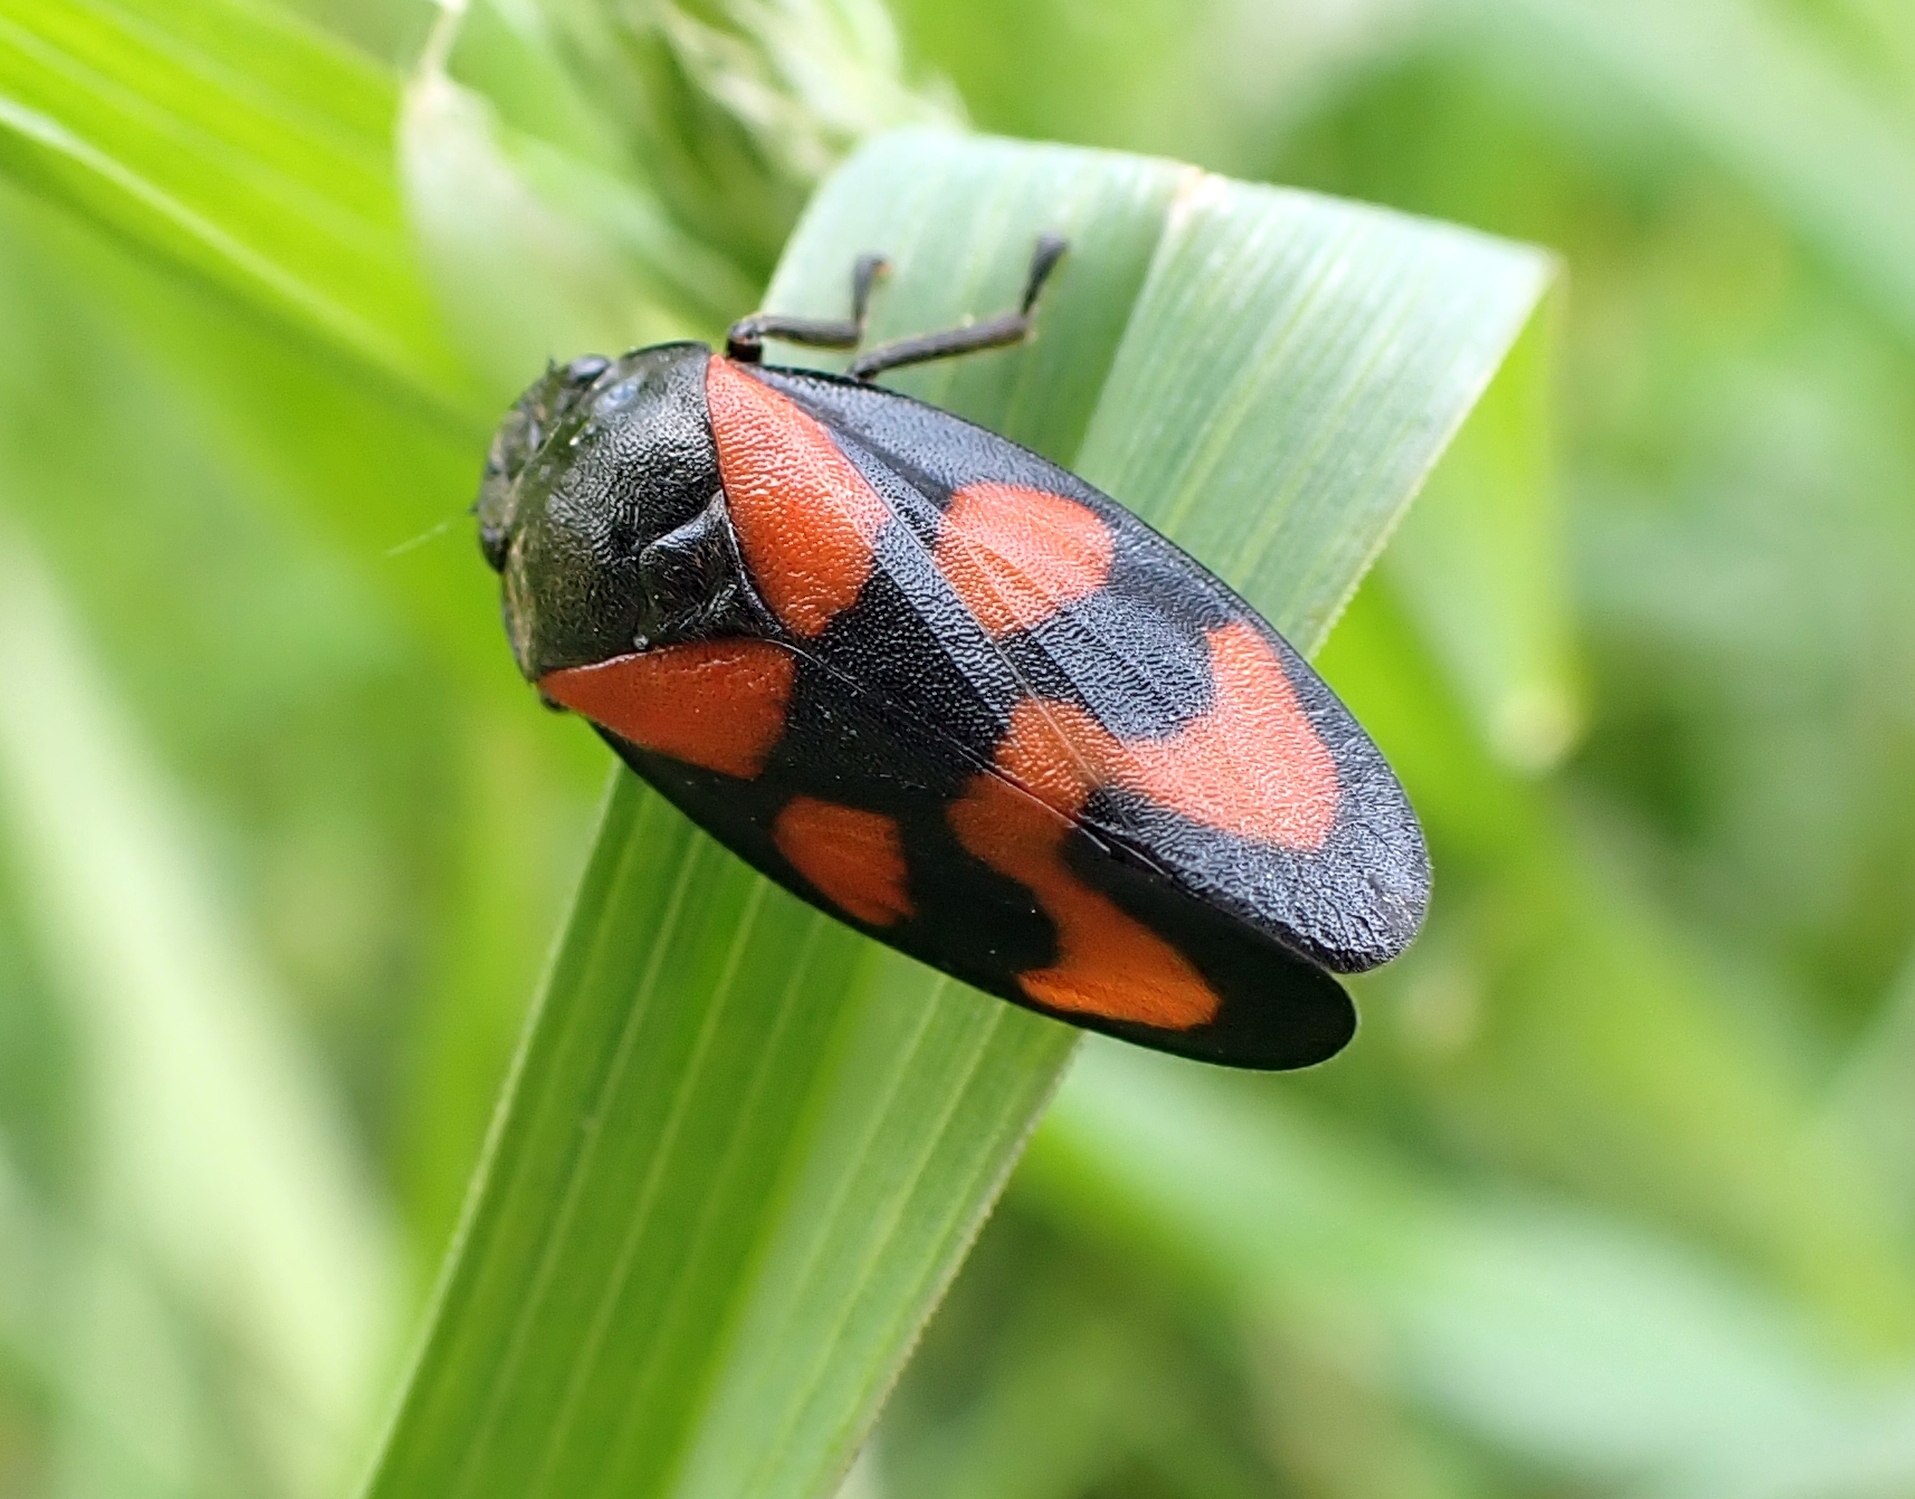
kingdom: Animalia
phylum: Arthropoda
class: Insecta
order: Hemiptera
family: Cercopidae
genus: Cercopis
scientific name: Cercopis vulnerata
